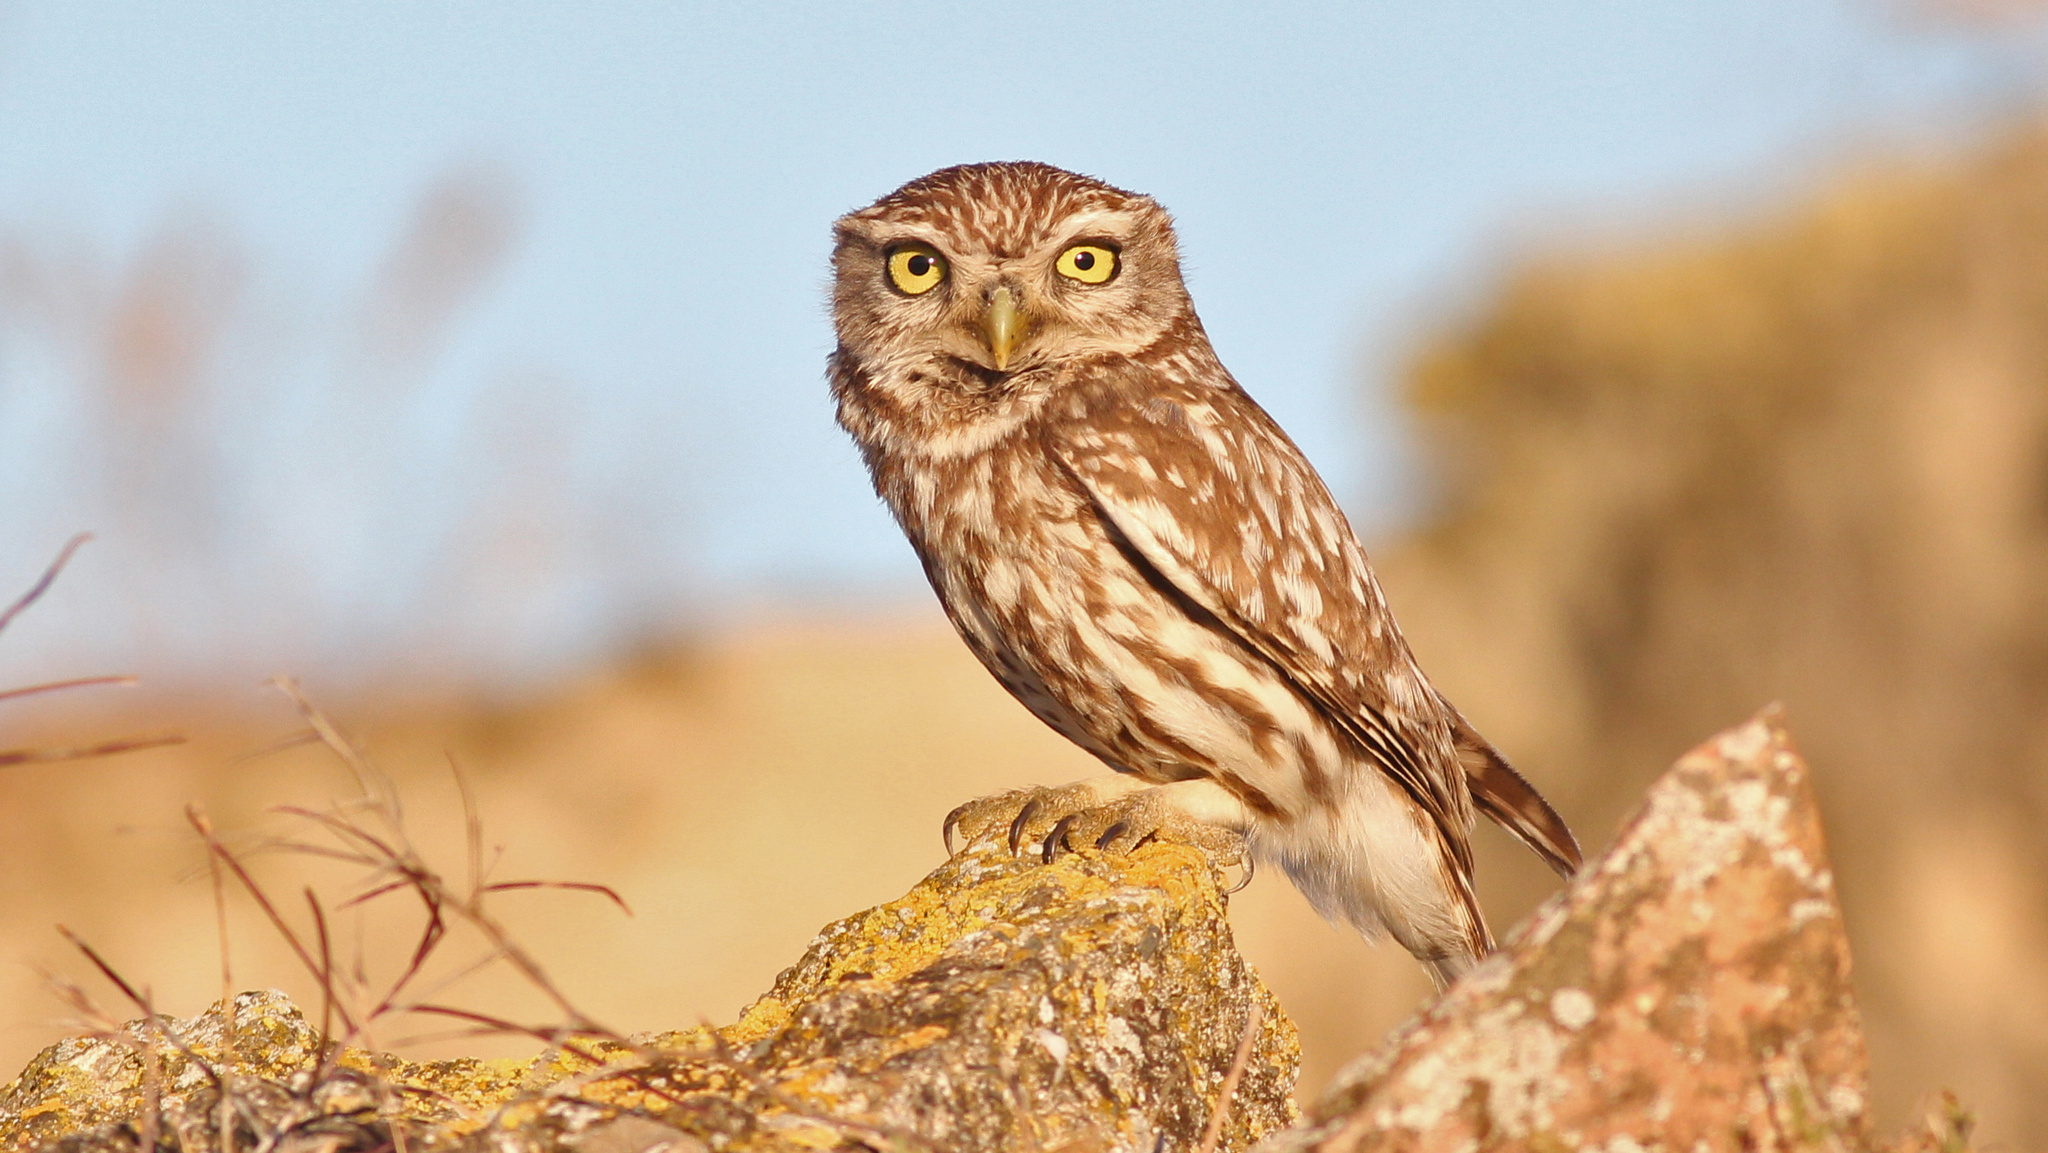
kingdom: Animalia
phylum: Chordata
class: Aves
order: Strigiformes
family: Strigidae
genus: Athene
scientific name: Athene noctua
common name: Little owl
